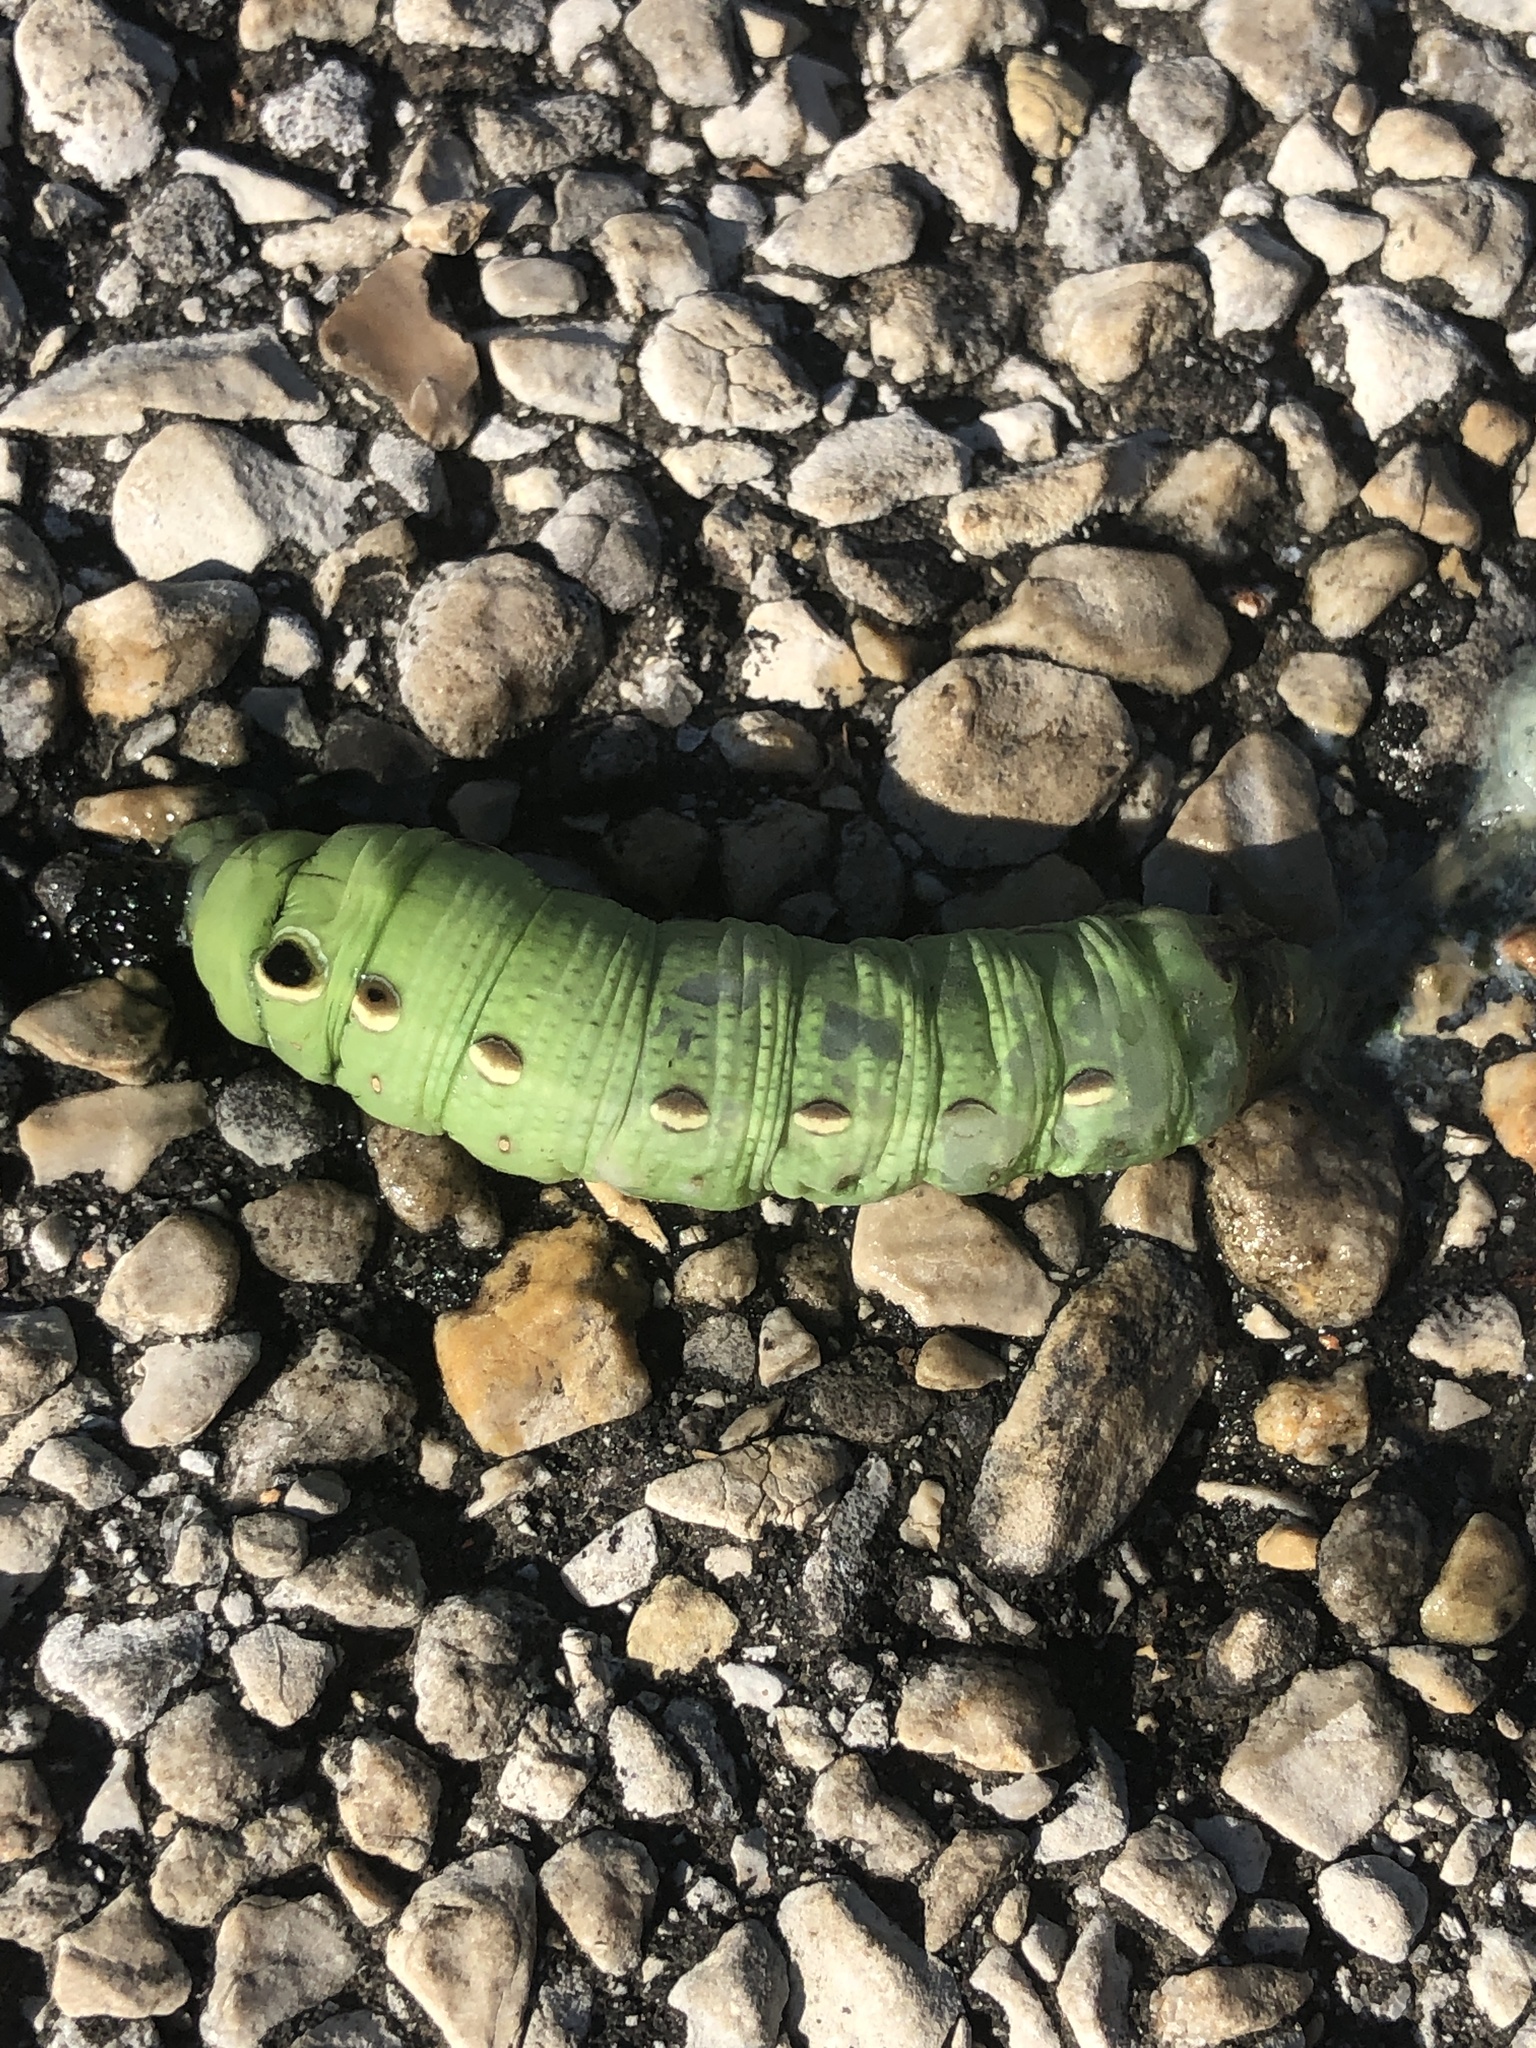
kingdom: Animalia
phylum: Arthropoda
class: Insecta
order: Lepidoptera
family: Sphingidae
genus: Xylophanes
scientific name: Xylophanes tersa
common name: Tersa sphinx
